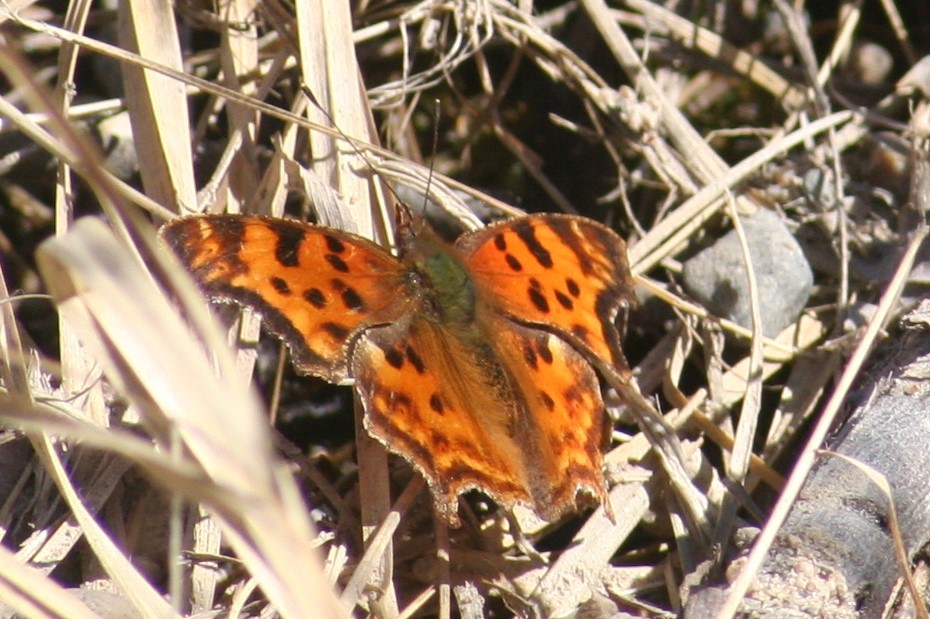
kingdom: Animalia
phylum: Arthropoda
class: Insecta
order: Lepidoptera
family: Nymphalidae
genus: Polygonia
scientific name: Polygonia satyrus
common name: Satyr angle wing
